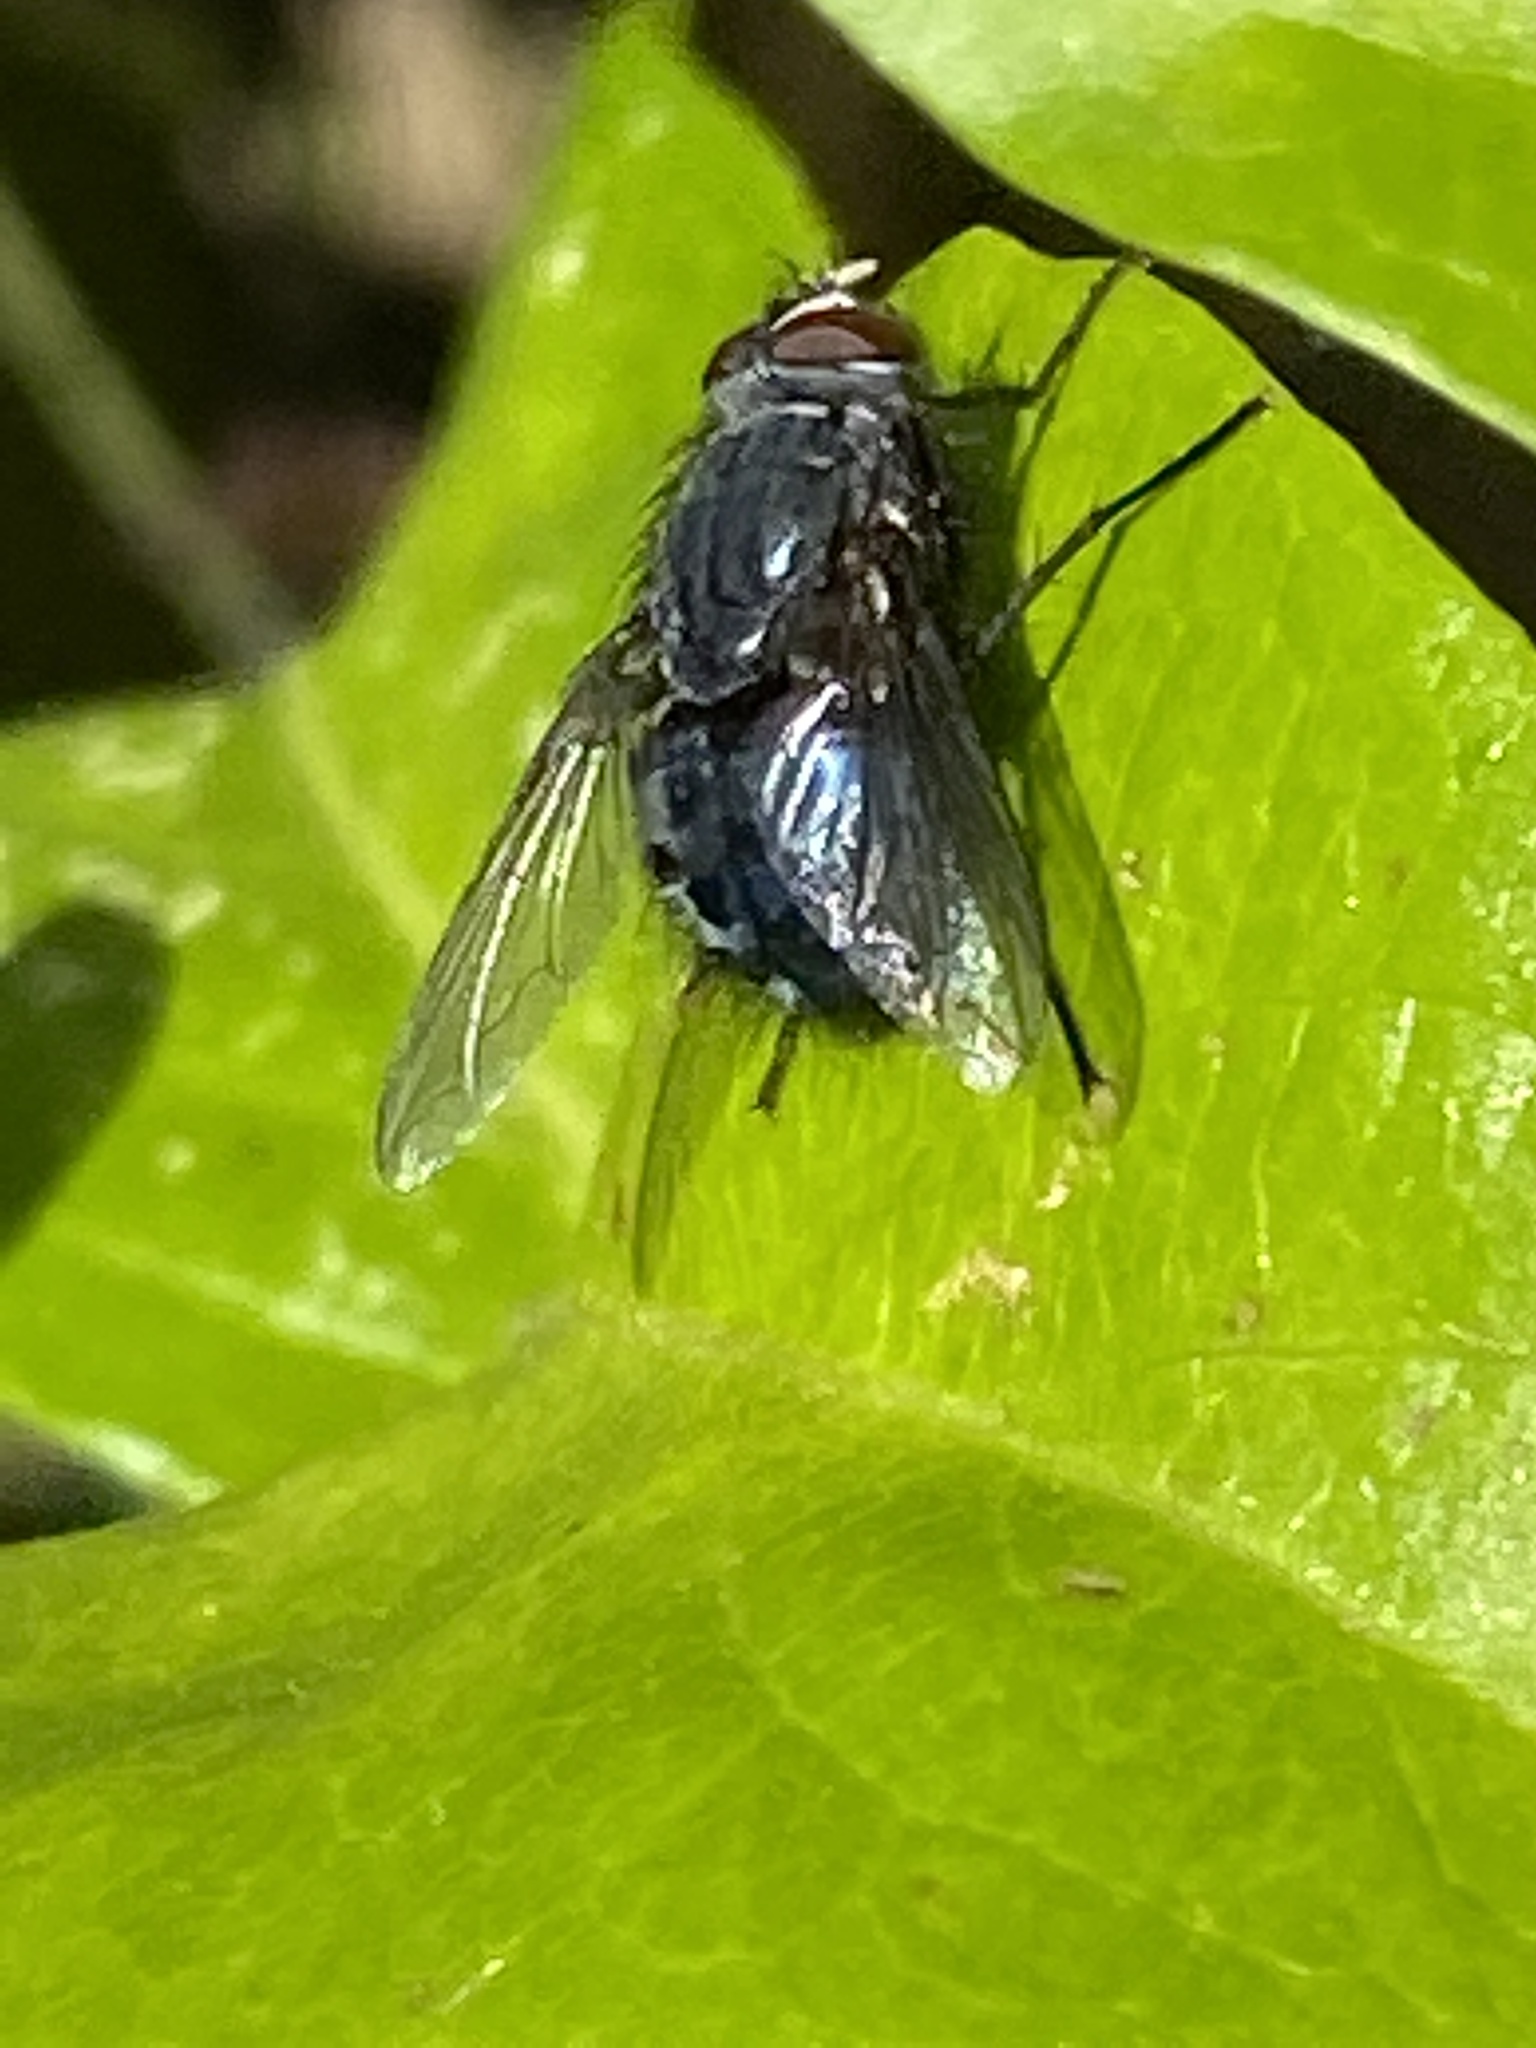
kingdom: Animalia
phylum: Arthropoda
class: Insecta
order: Diptera
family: Calliphoridae
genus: Calliphora
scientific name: Calliphora vicina
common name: Common blow flie
